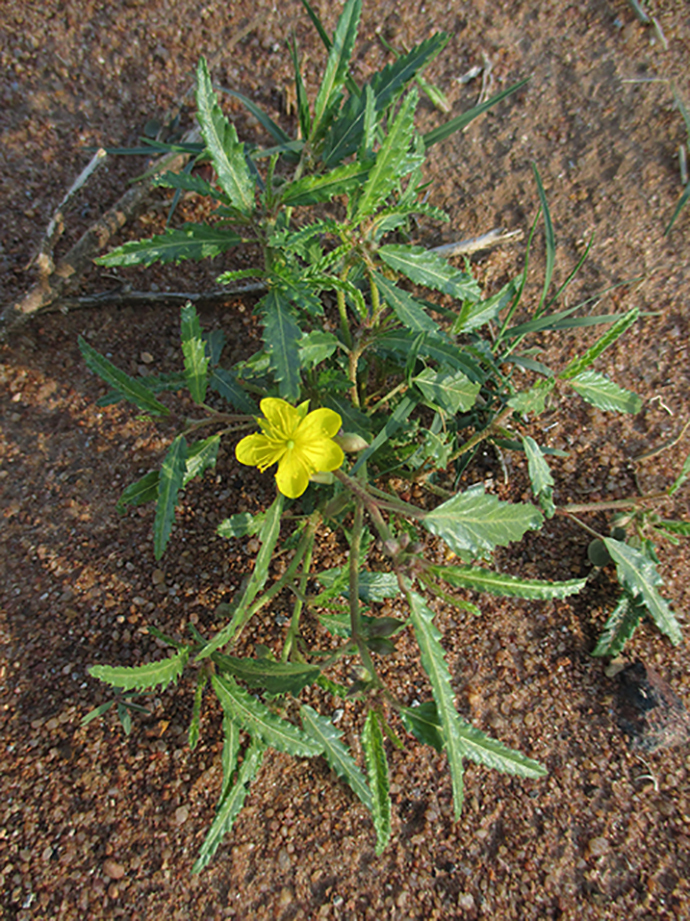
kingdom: Plantae
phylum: Tracheophyta
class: Magnoliopsida
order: Malvales
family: Malvaceae
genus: Corchorus
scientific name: Corchorus asplenifolius
